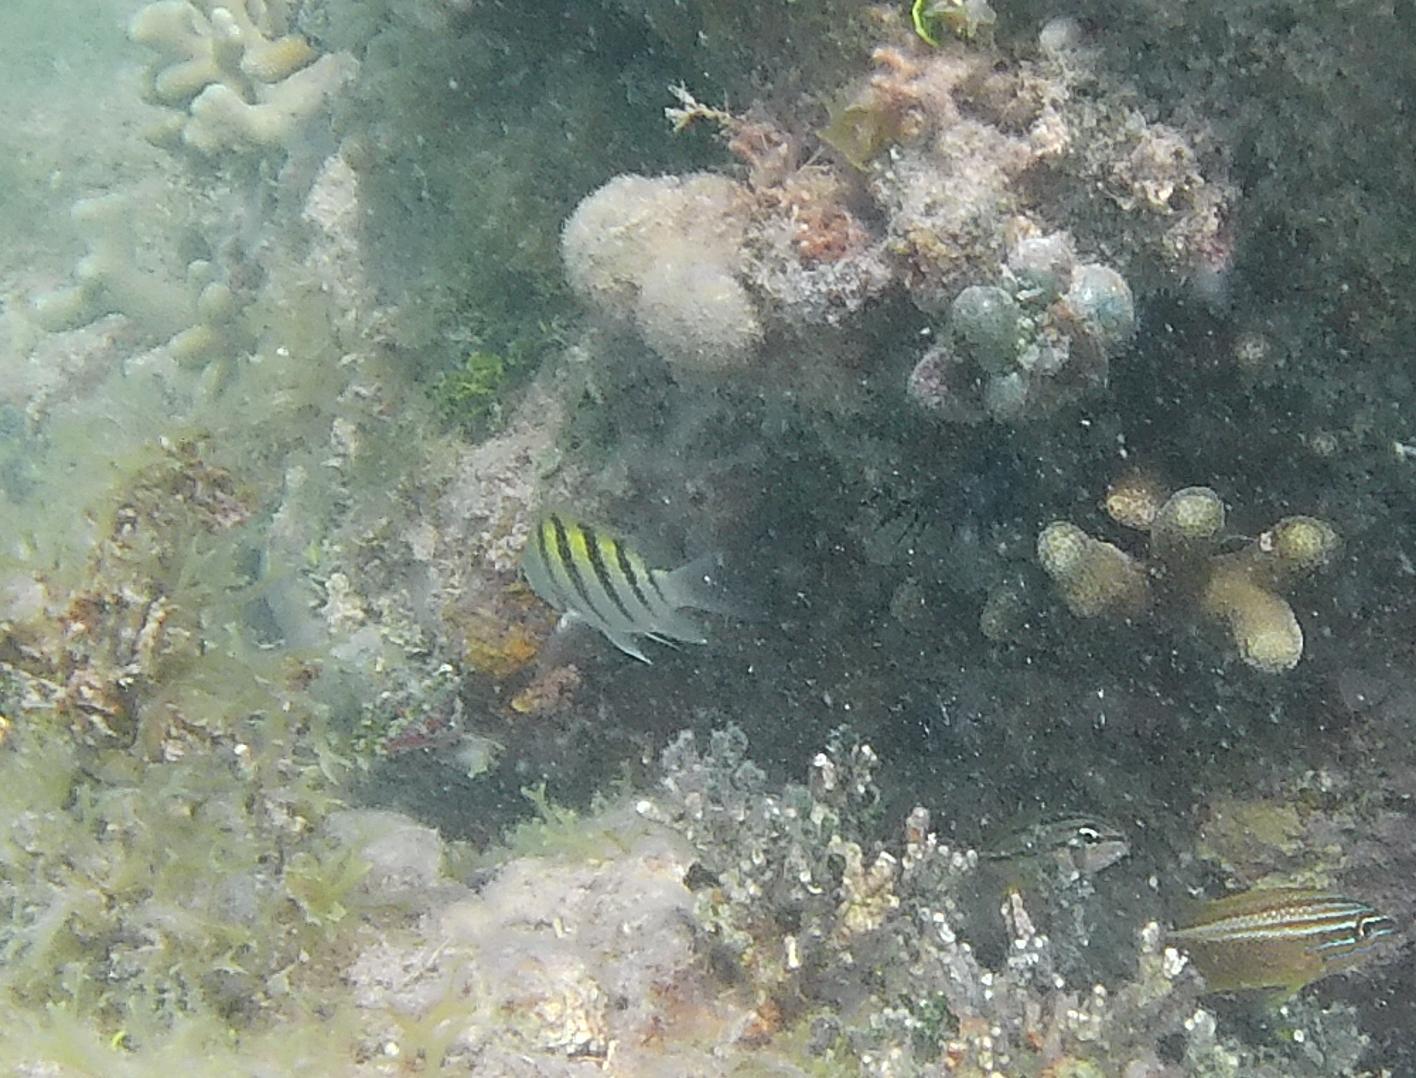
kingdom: Animalia
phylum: Chordata
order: Perciformes
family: Pomacentridae
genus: Abudefduf
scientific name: Abudefduf saxatilis
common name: Sergeant major
